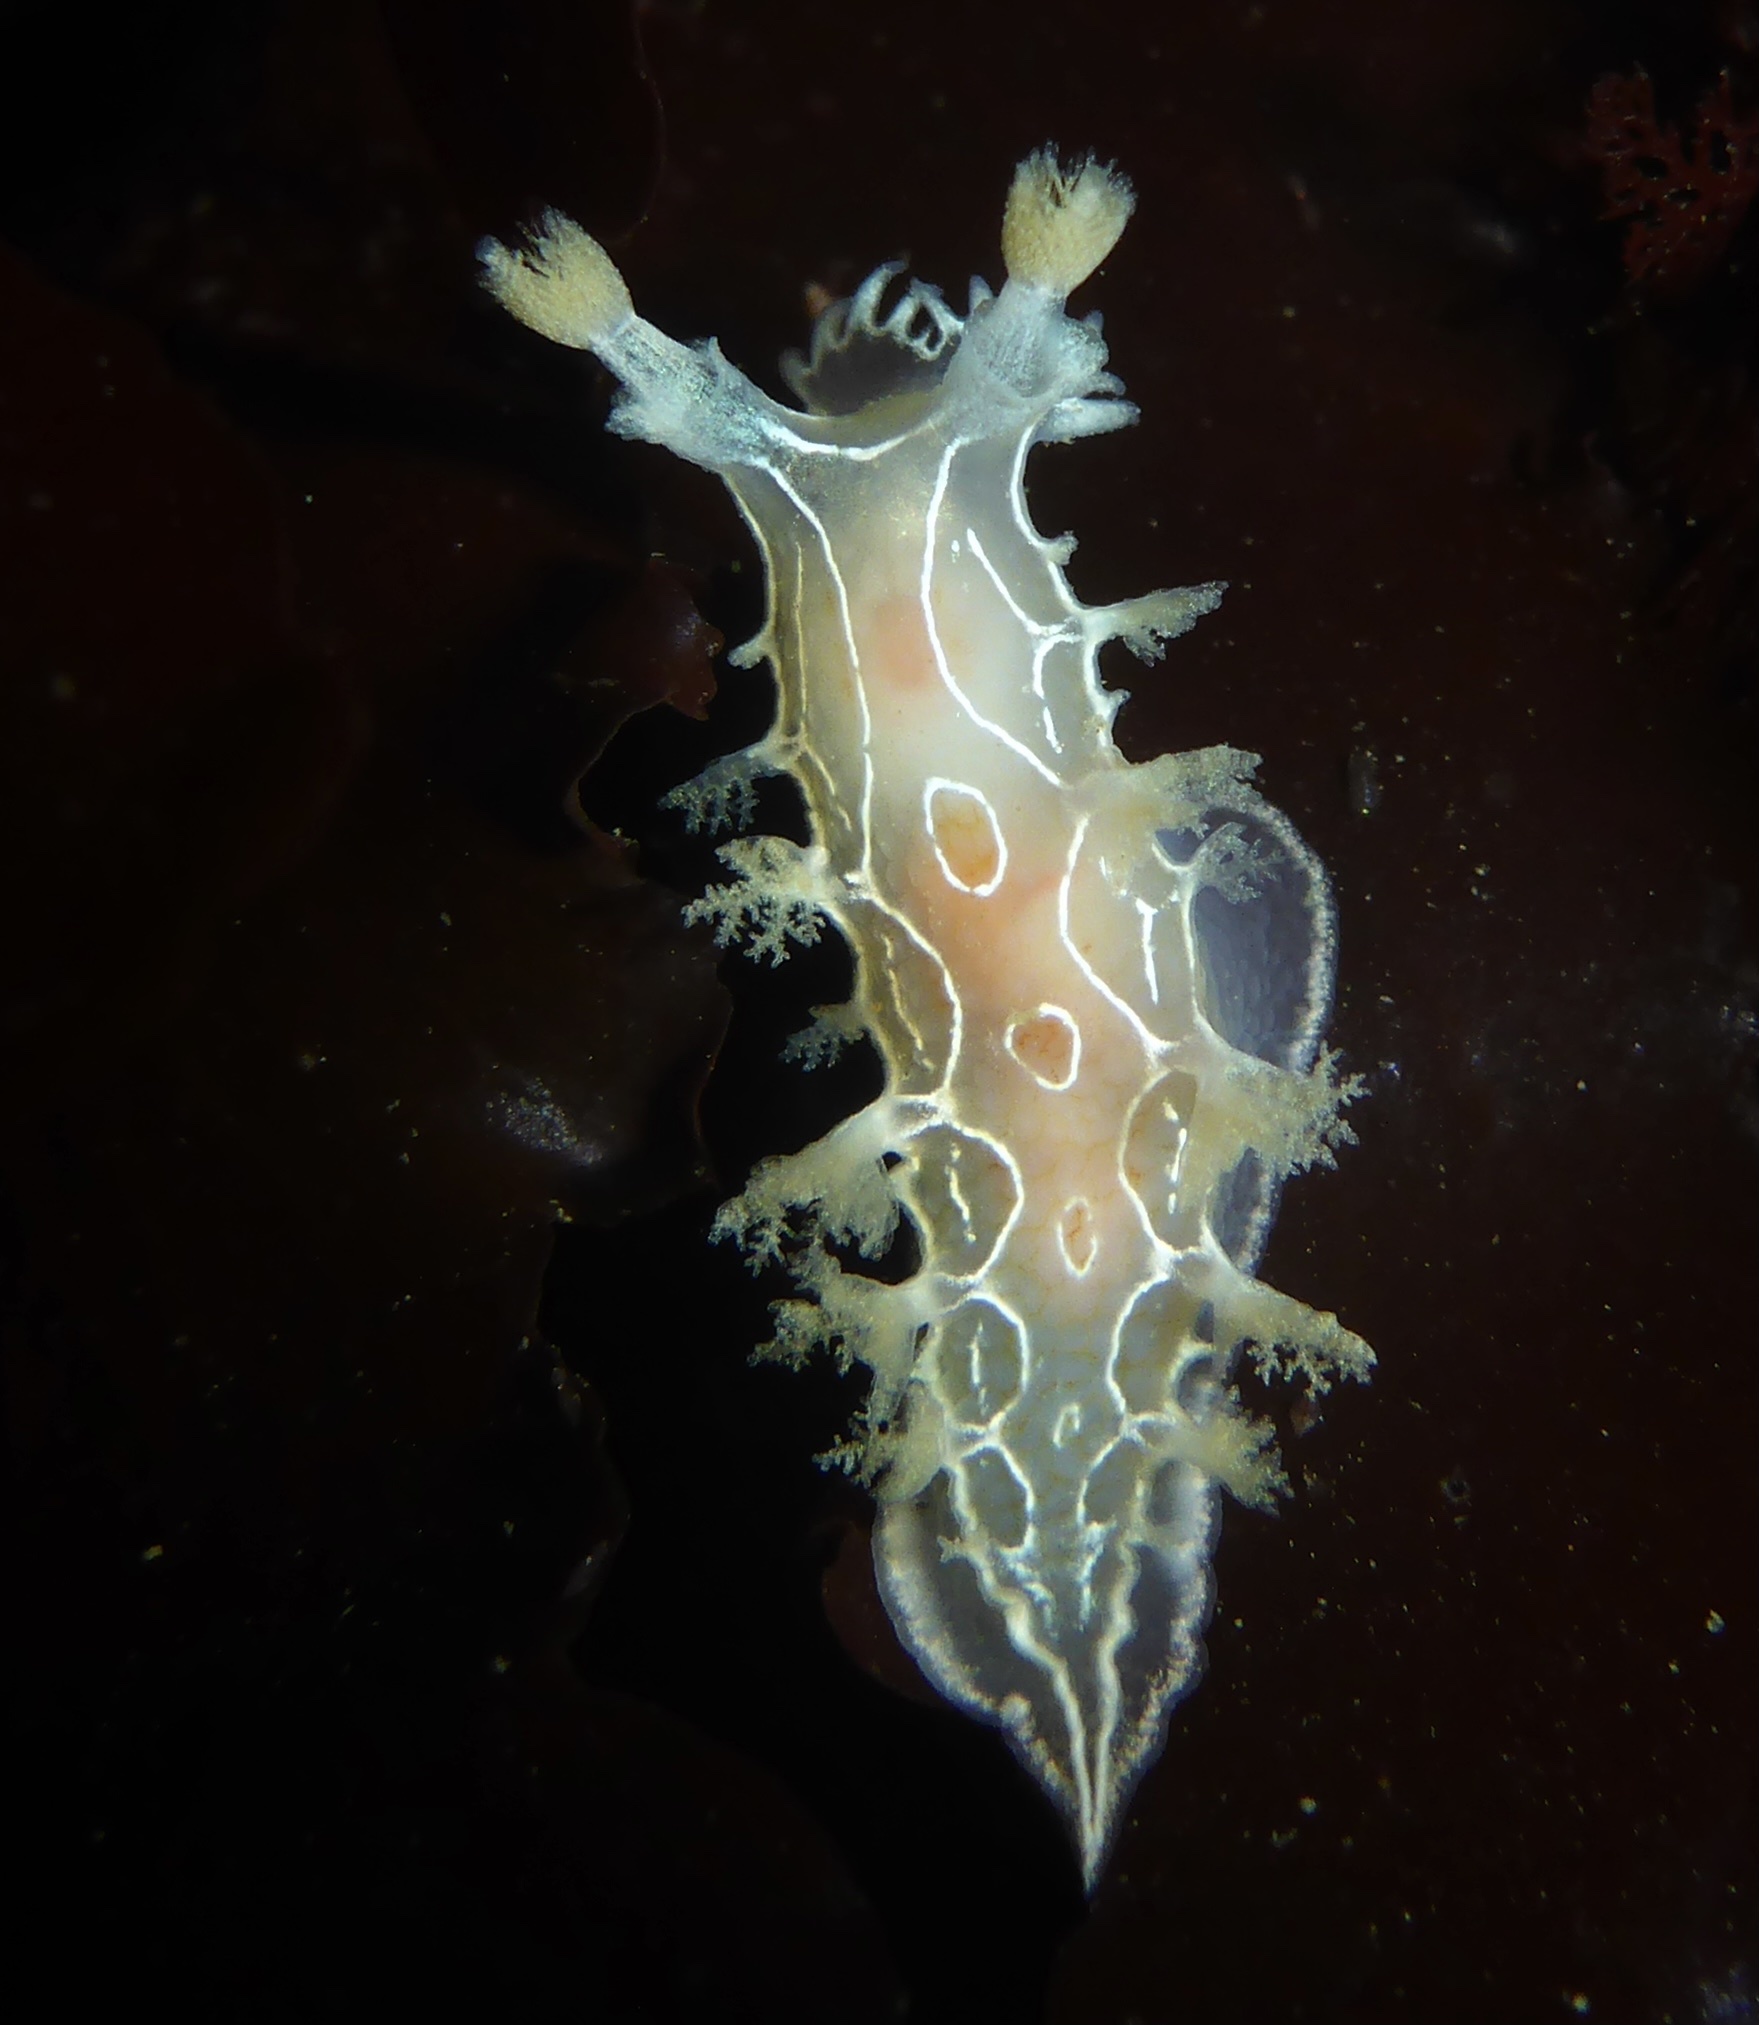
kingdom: Animalia
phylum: Mollusca
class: Gastropoda
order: Nudibranchia
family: Tritoniidae
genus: Tritonia
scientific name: Tritonia festiva
